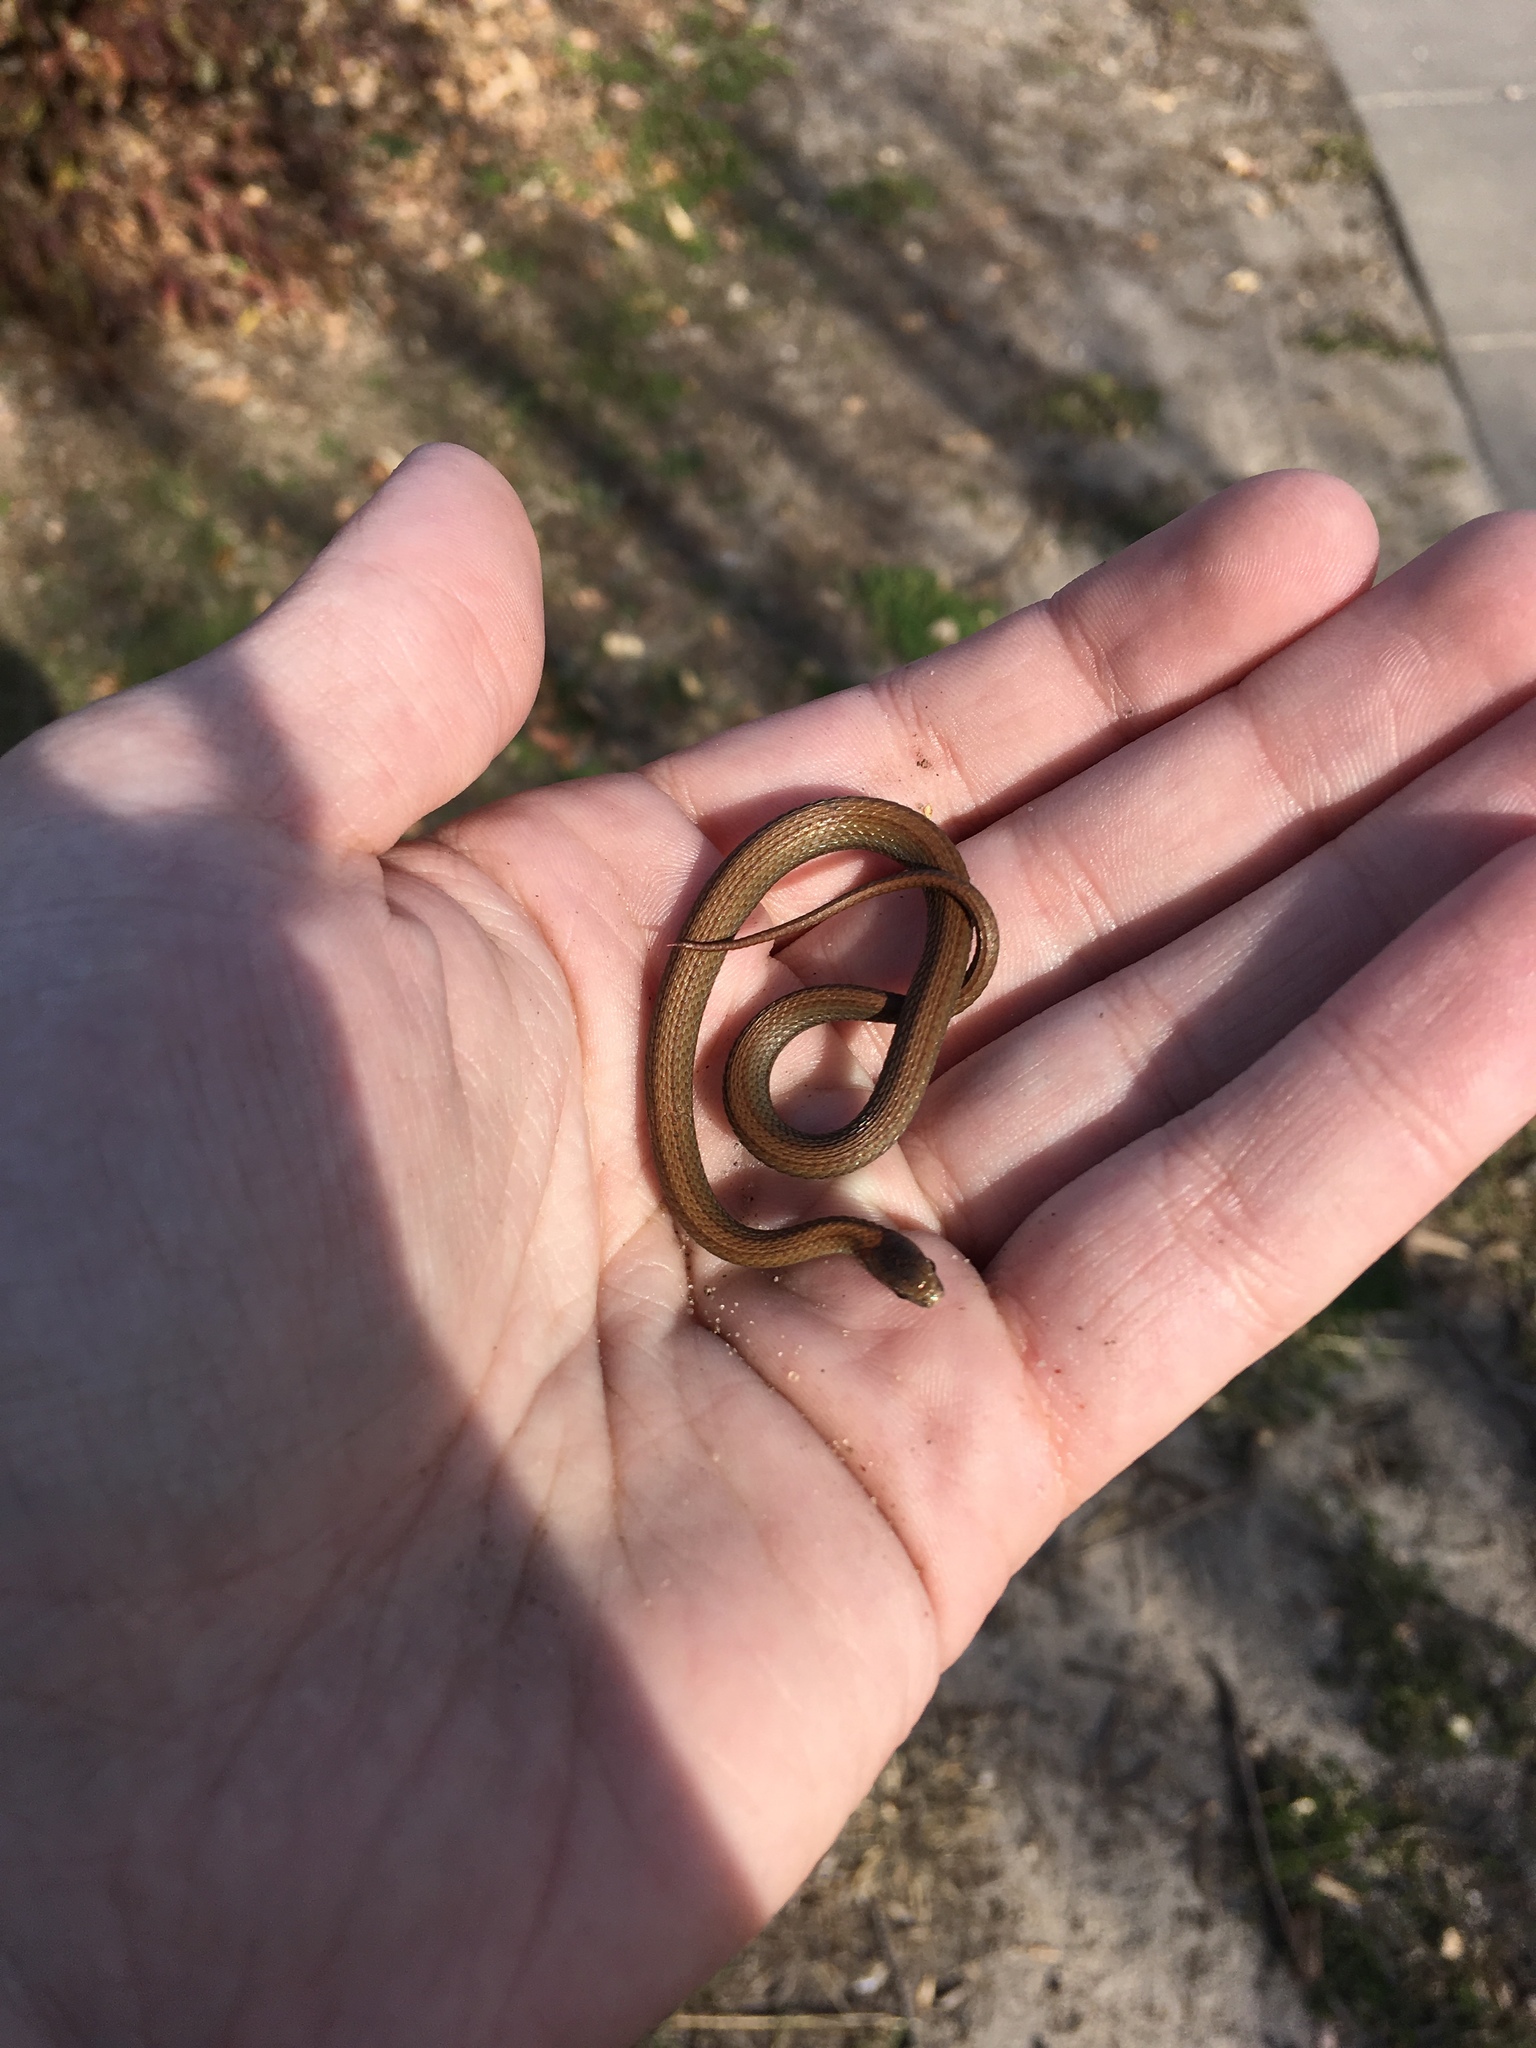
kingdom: Animalia
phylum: Chordata
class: Squamata
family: Colubridae
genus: Storeria
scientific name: Storeria occipitomaculata
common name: Redbelly snake
